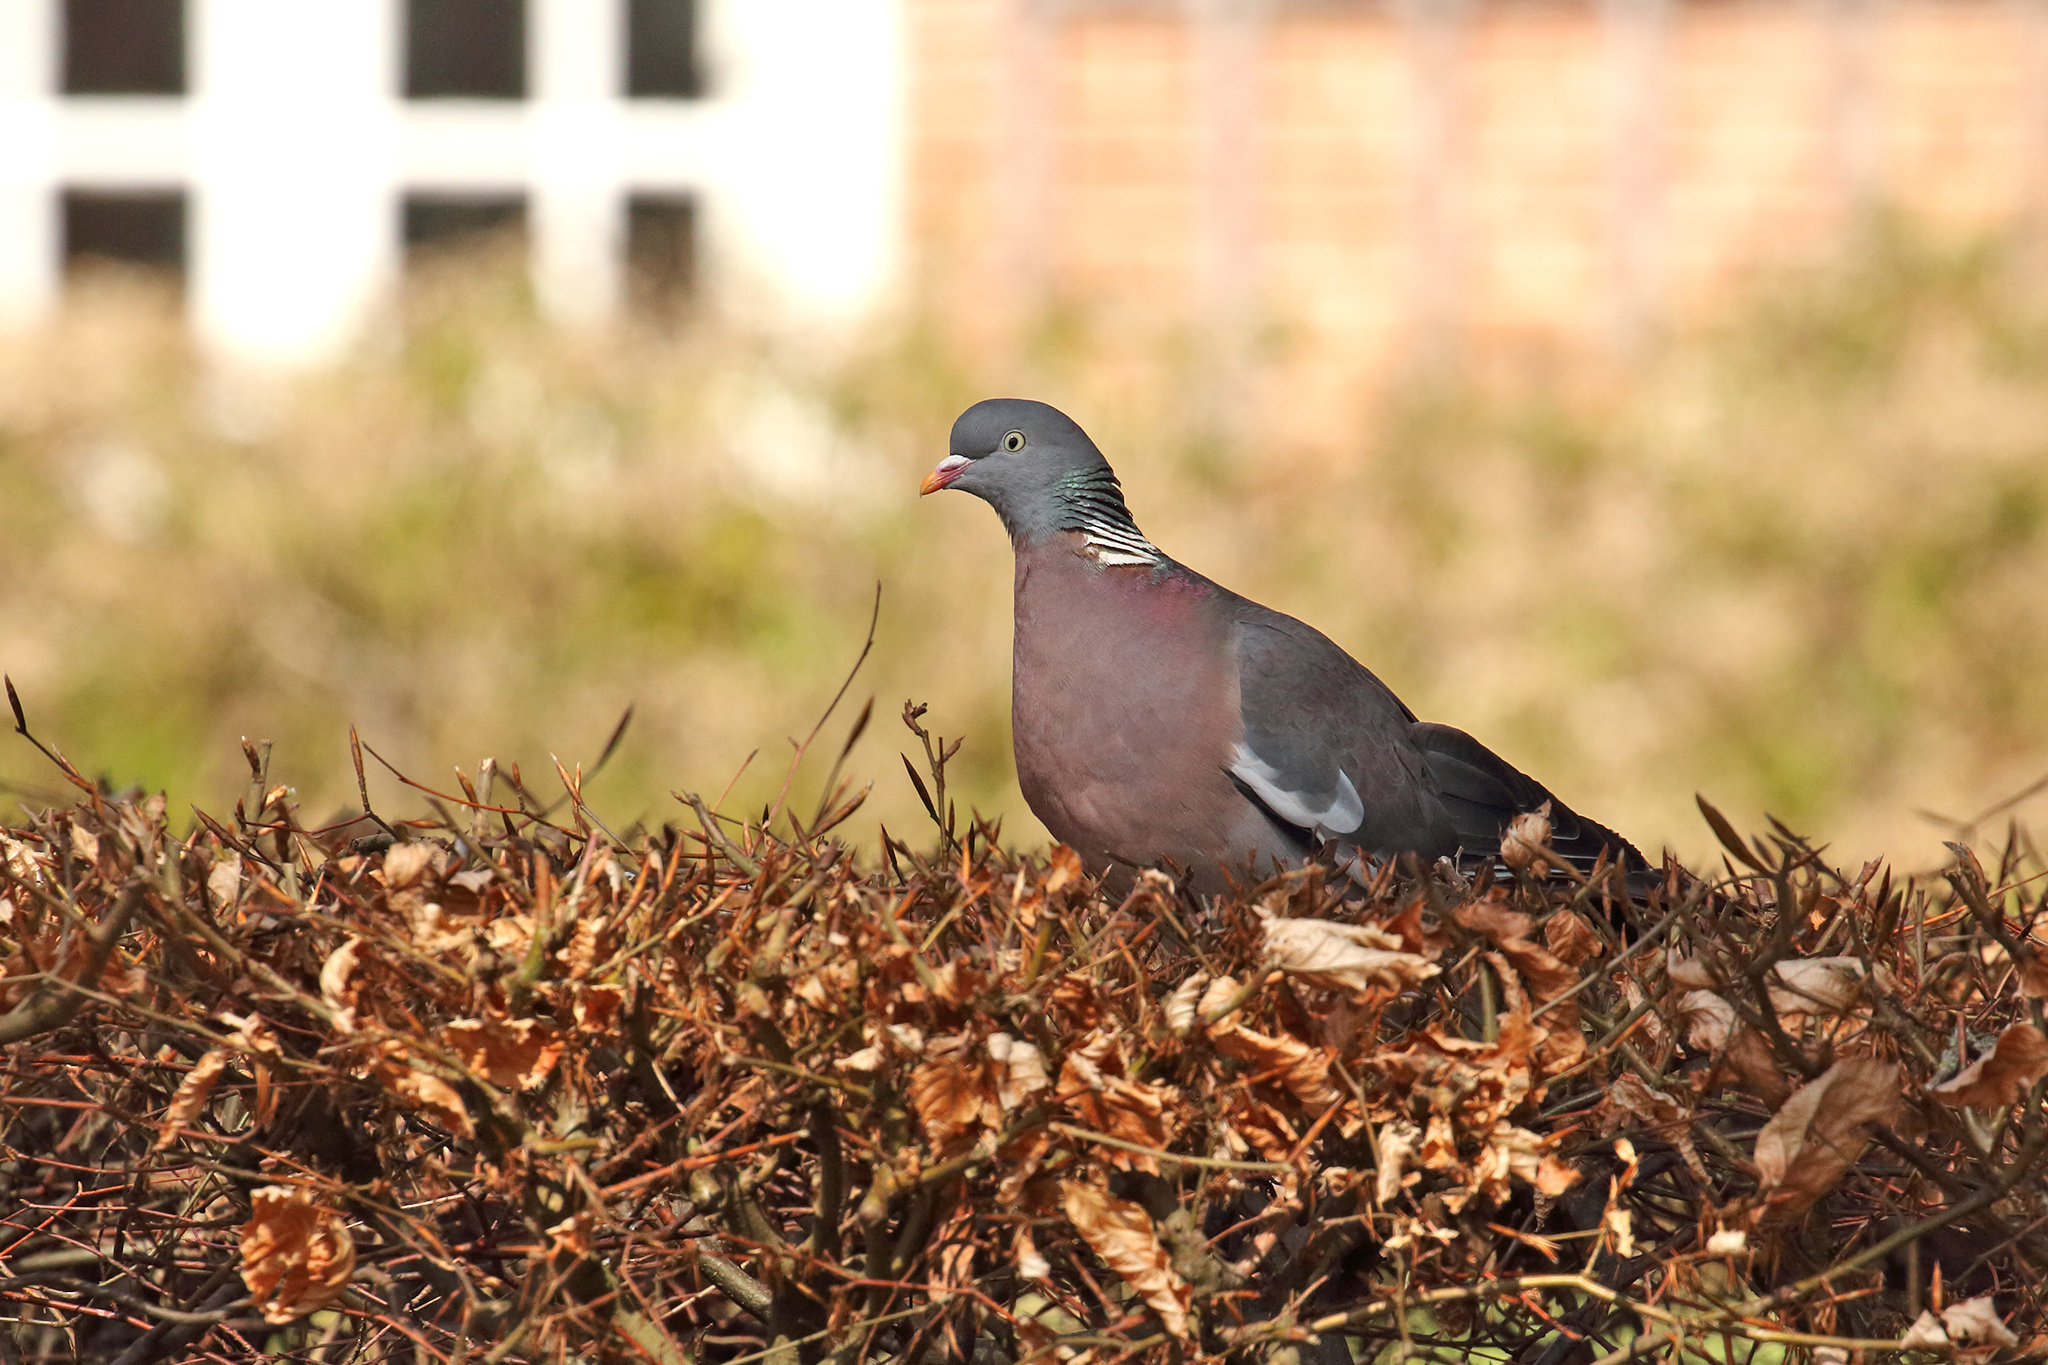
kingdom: Animalia
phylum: Chordata
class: Aves
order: Columbiformes
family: Columbidae
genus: Columba
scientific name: Columba palumbus
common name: Common wood pigeon
